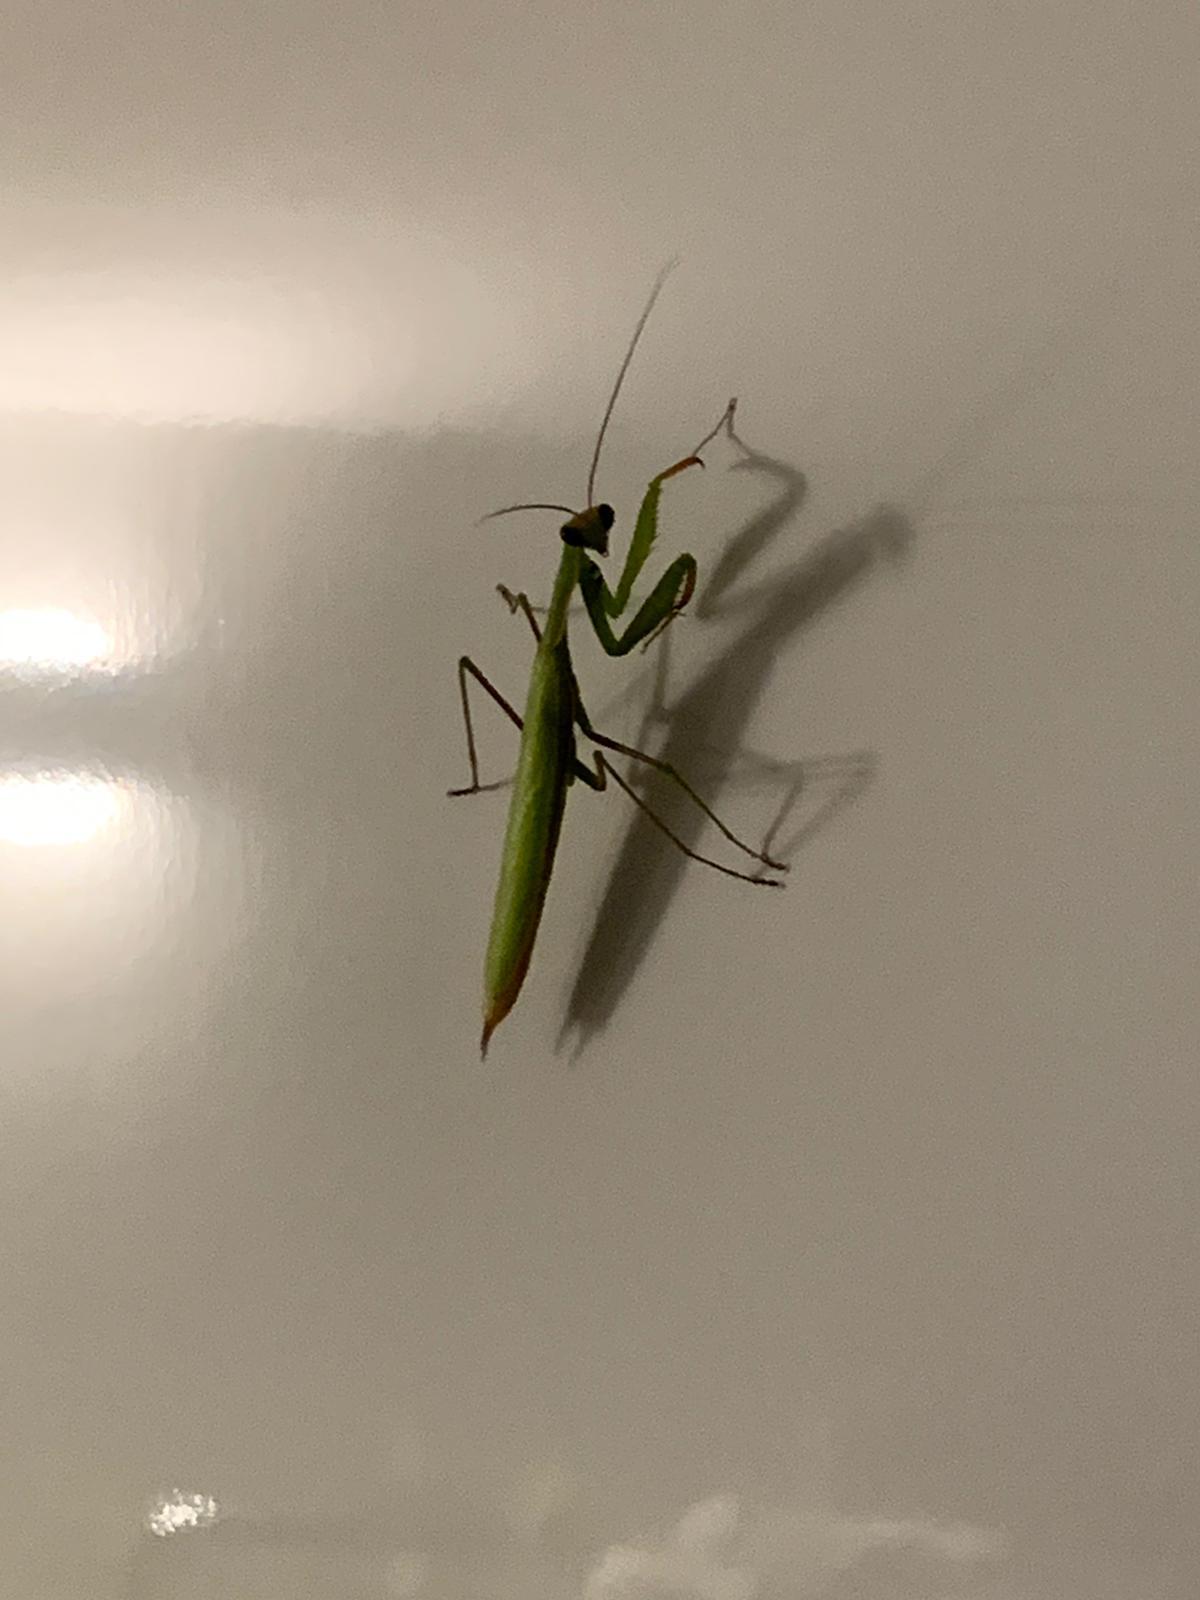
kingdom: Animalia
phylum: Arthropoda
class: Insecta
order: Mantodea
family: Mantidae
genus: Mantis
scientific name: Mantis religiosa
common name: Praying mantis
